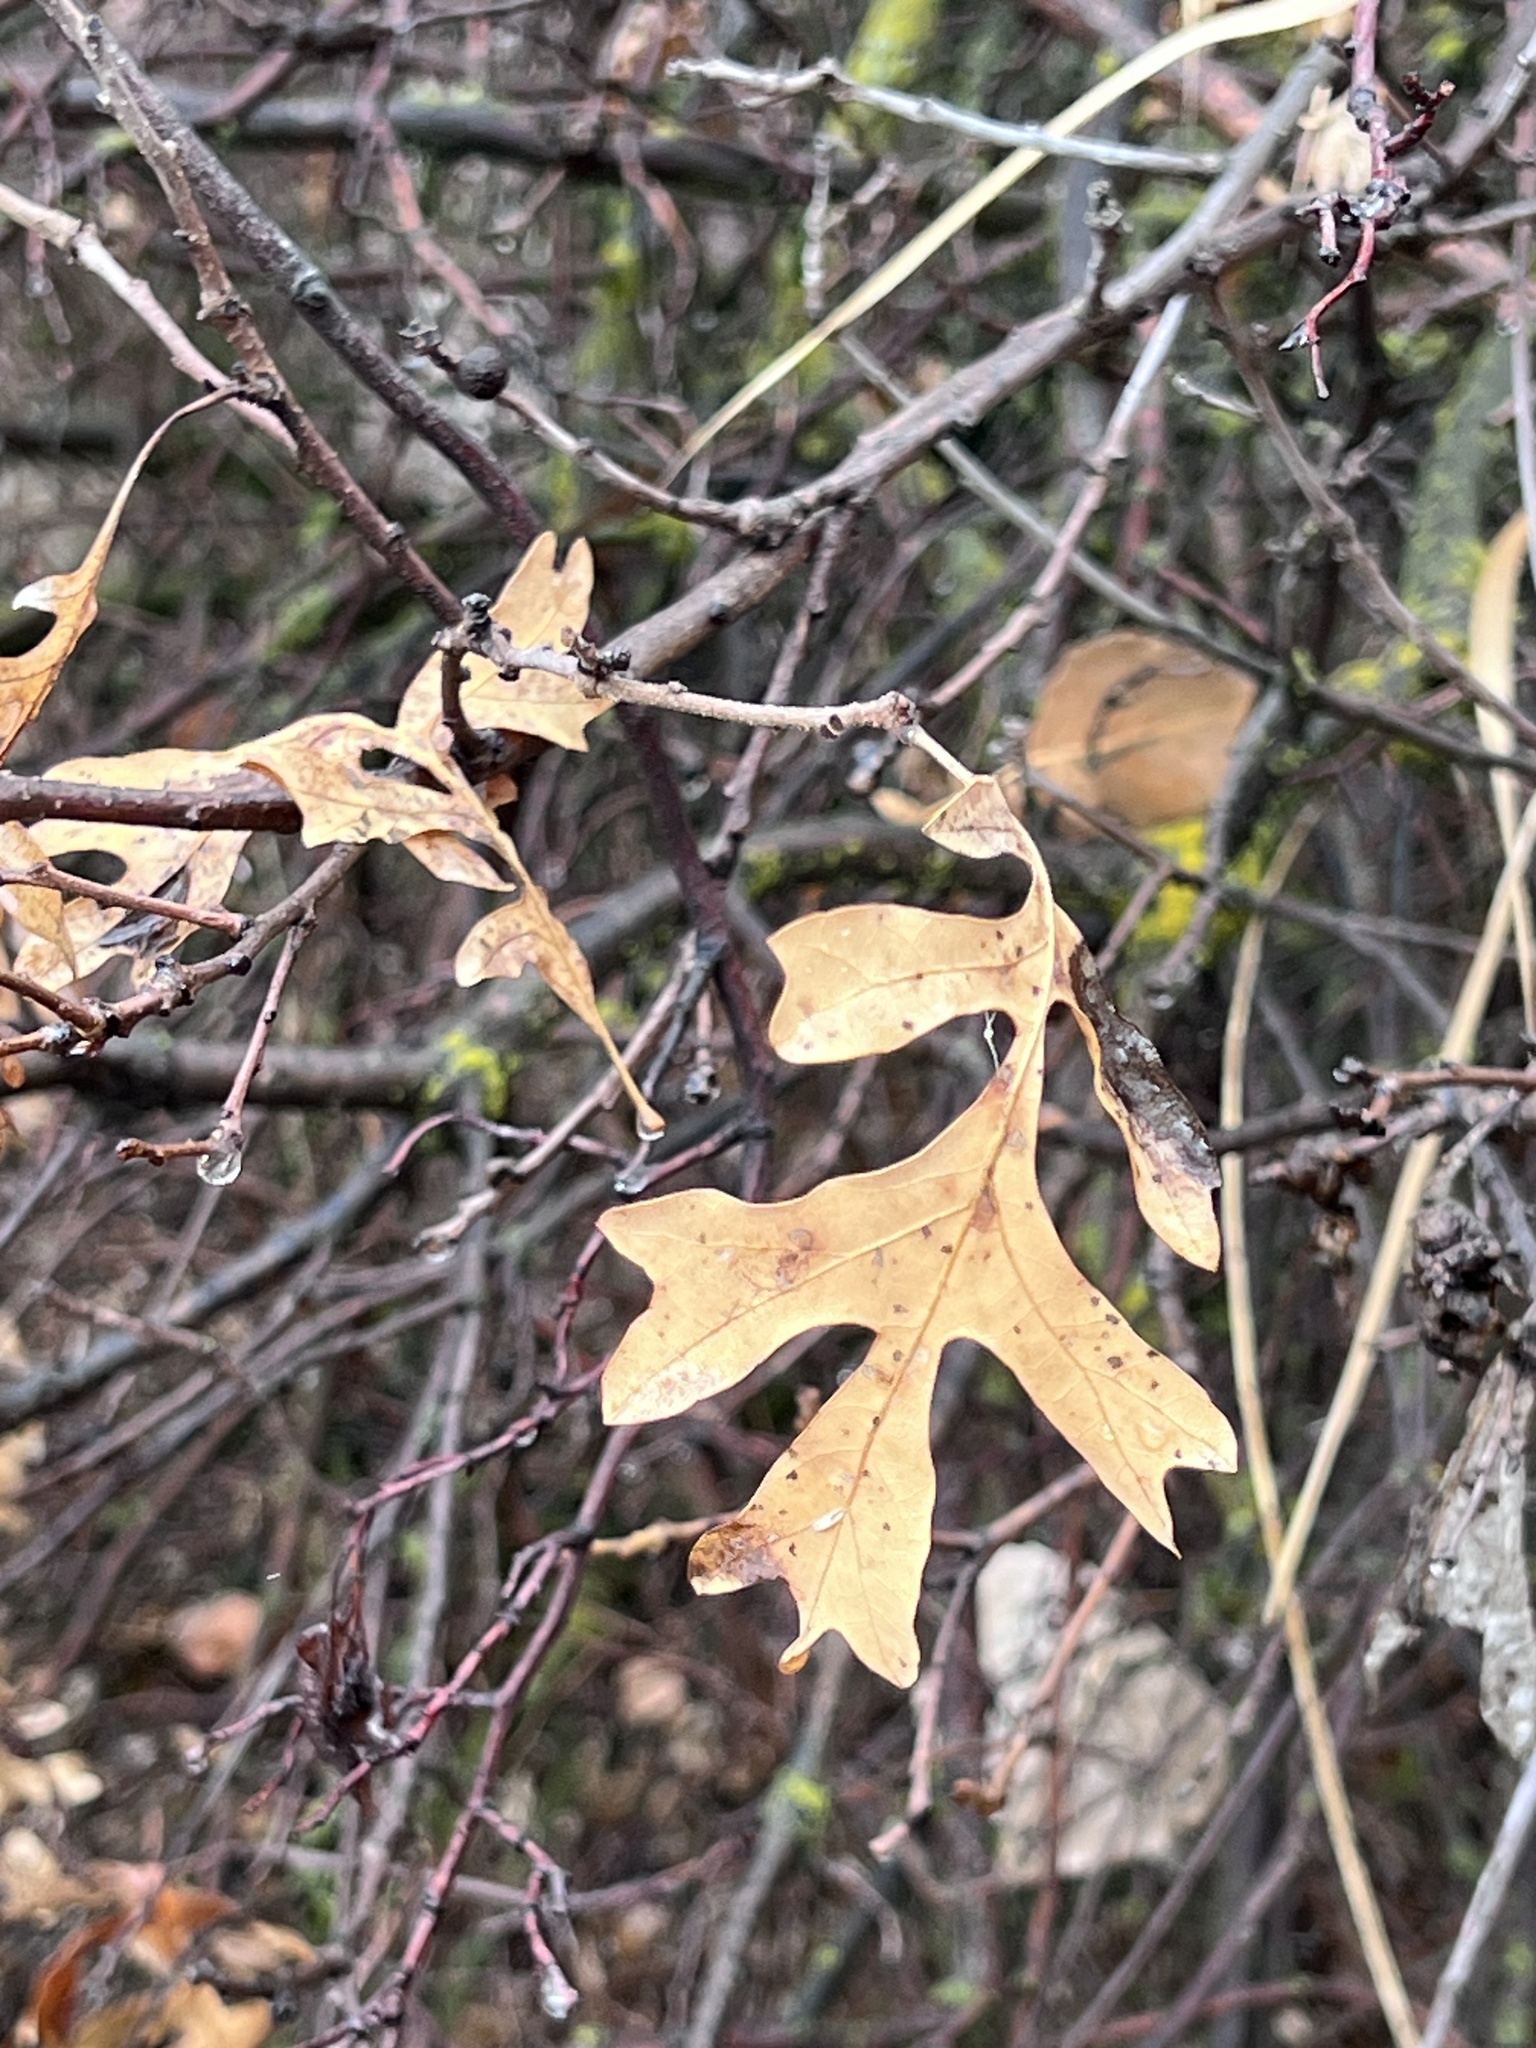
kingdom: Plantae
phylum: Tracheophyta
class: Magnoliopsida
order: Fagales
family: Fagaceae
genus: Quercus
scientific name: Quercus gambelii
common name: Gambel oak
